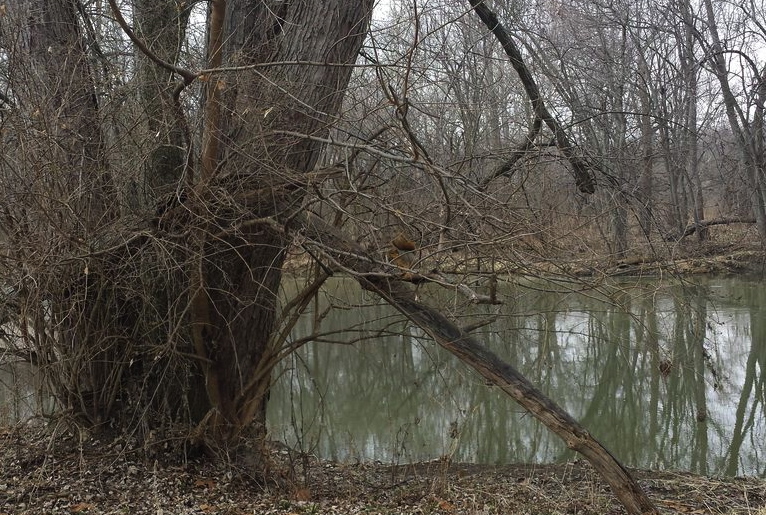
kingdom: Animalia
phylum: Chordata
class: Mammalia
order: Rodentia
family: Sciuridae
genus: Sciurus
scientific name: Sciurus niger
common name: Fox squirrel
